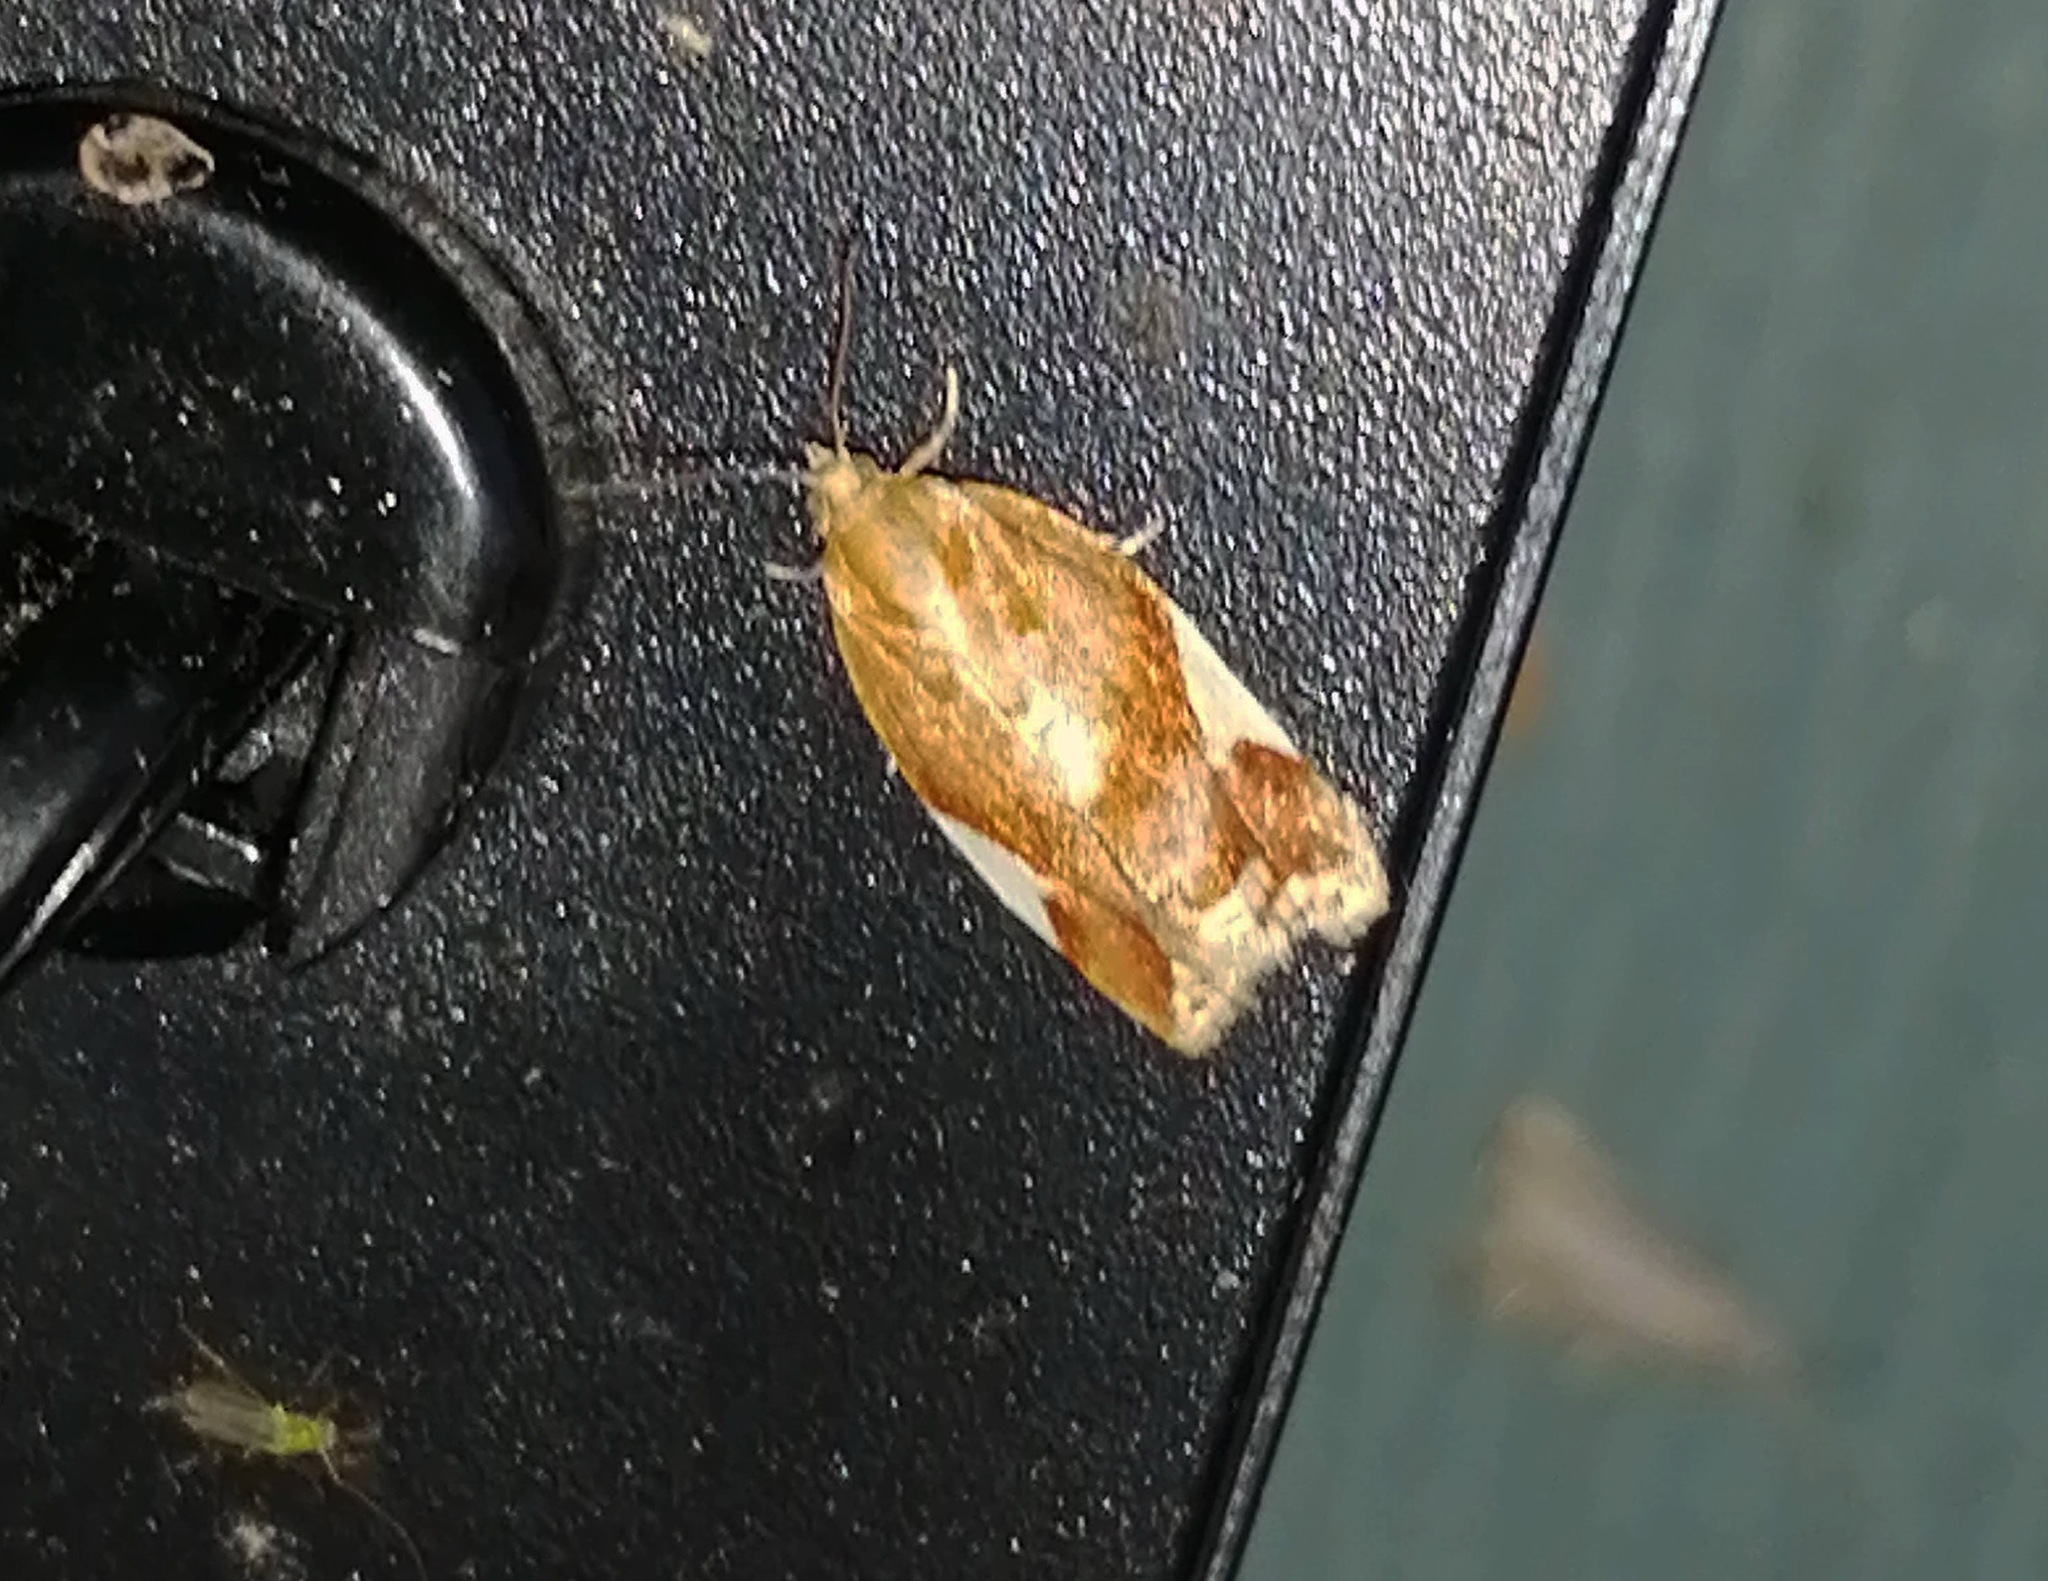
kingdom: Animalia
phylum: Arthropoda
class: Insecta
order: Lepidoptera
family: Tortricidae
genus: Clepsis
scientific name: Clepsis persicana
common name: White triangle tortrix
